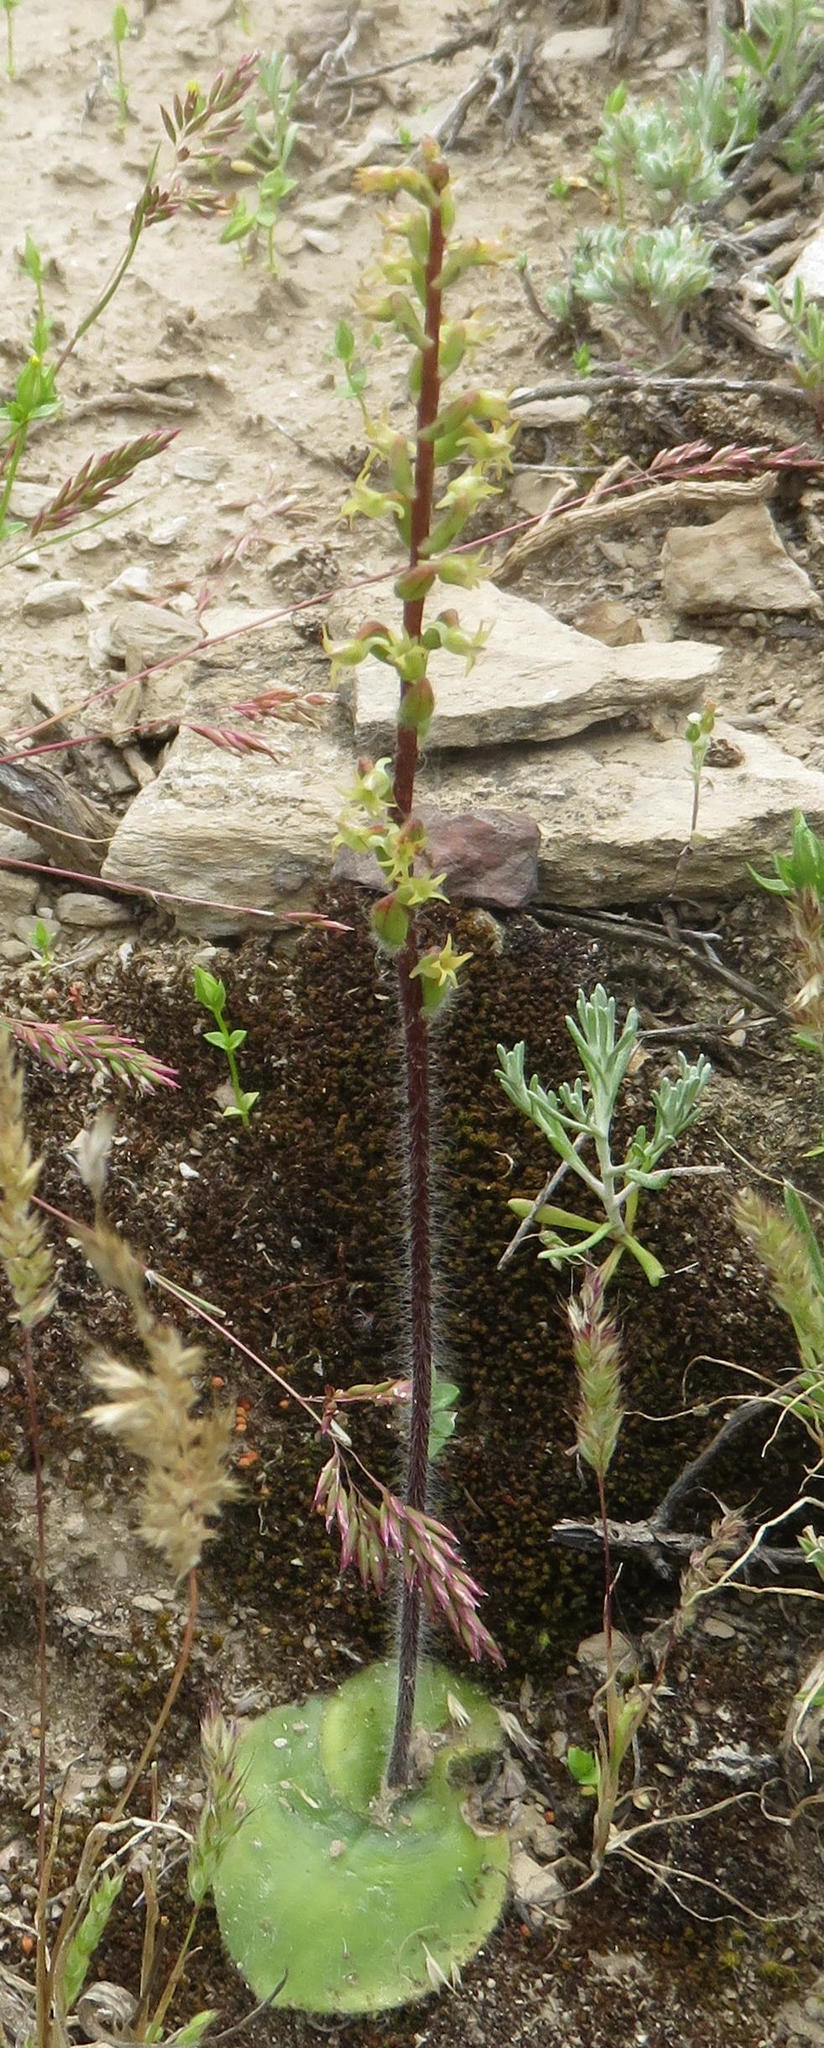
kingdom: Plantae
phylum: Tracheophyta
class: Liliopsida
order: Asparagales
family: Orchidaceae
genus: Holothrix
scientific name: Holothrix villosa
